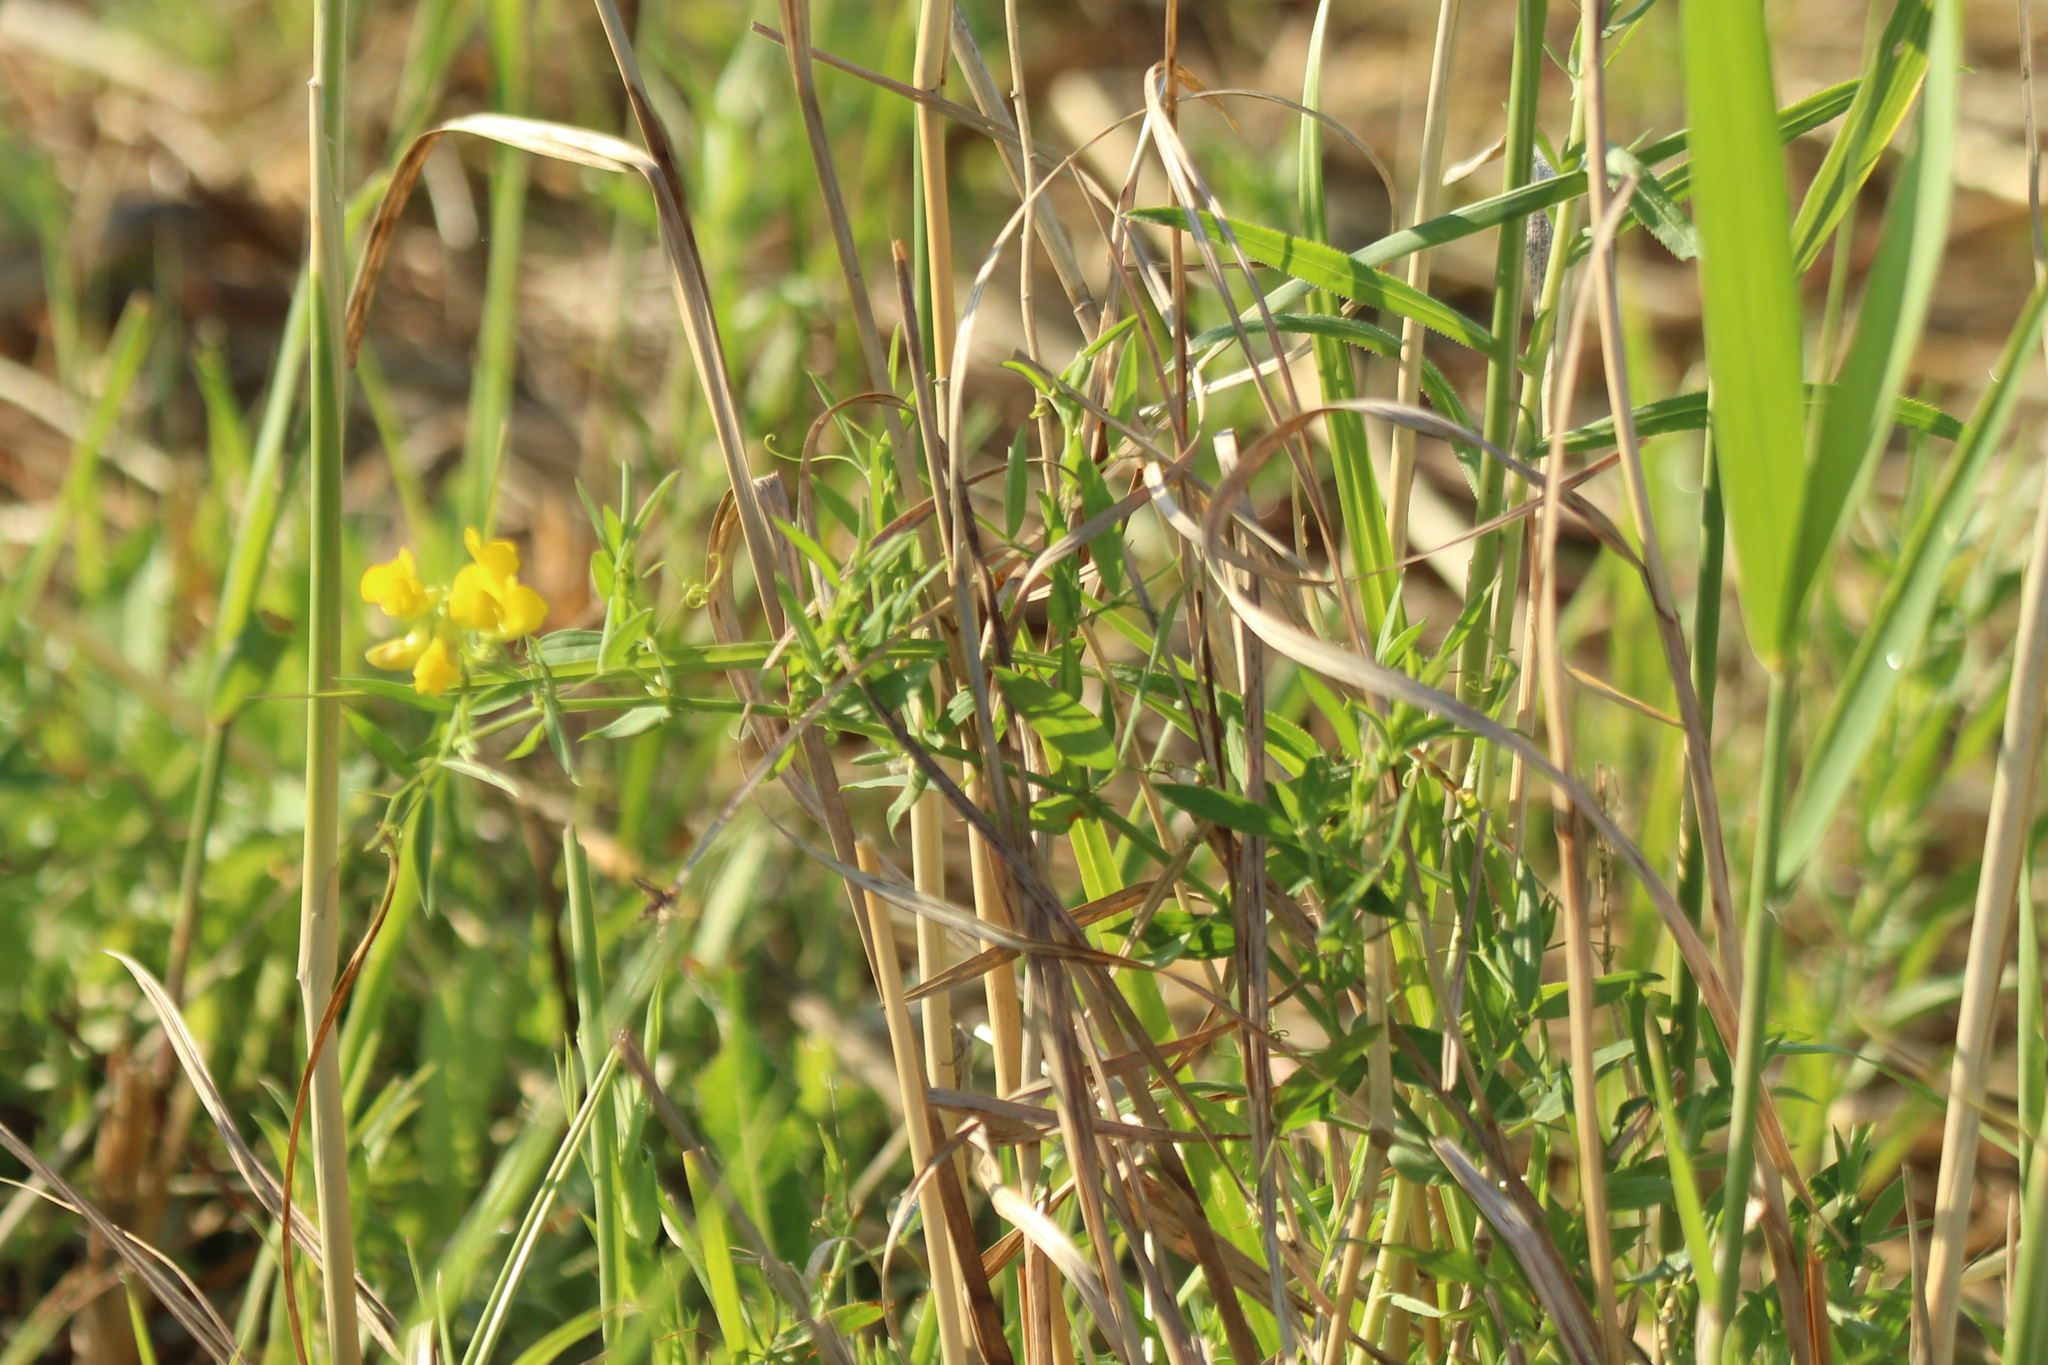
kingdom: Plantae
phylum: Tracheophyta
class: Magnoliopsida
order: Fabales
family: Fabaceae
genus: Lathyrus
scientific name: Lathyrus pratensis
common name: Meadow vetchling
